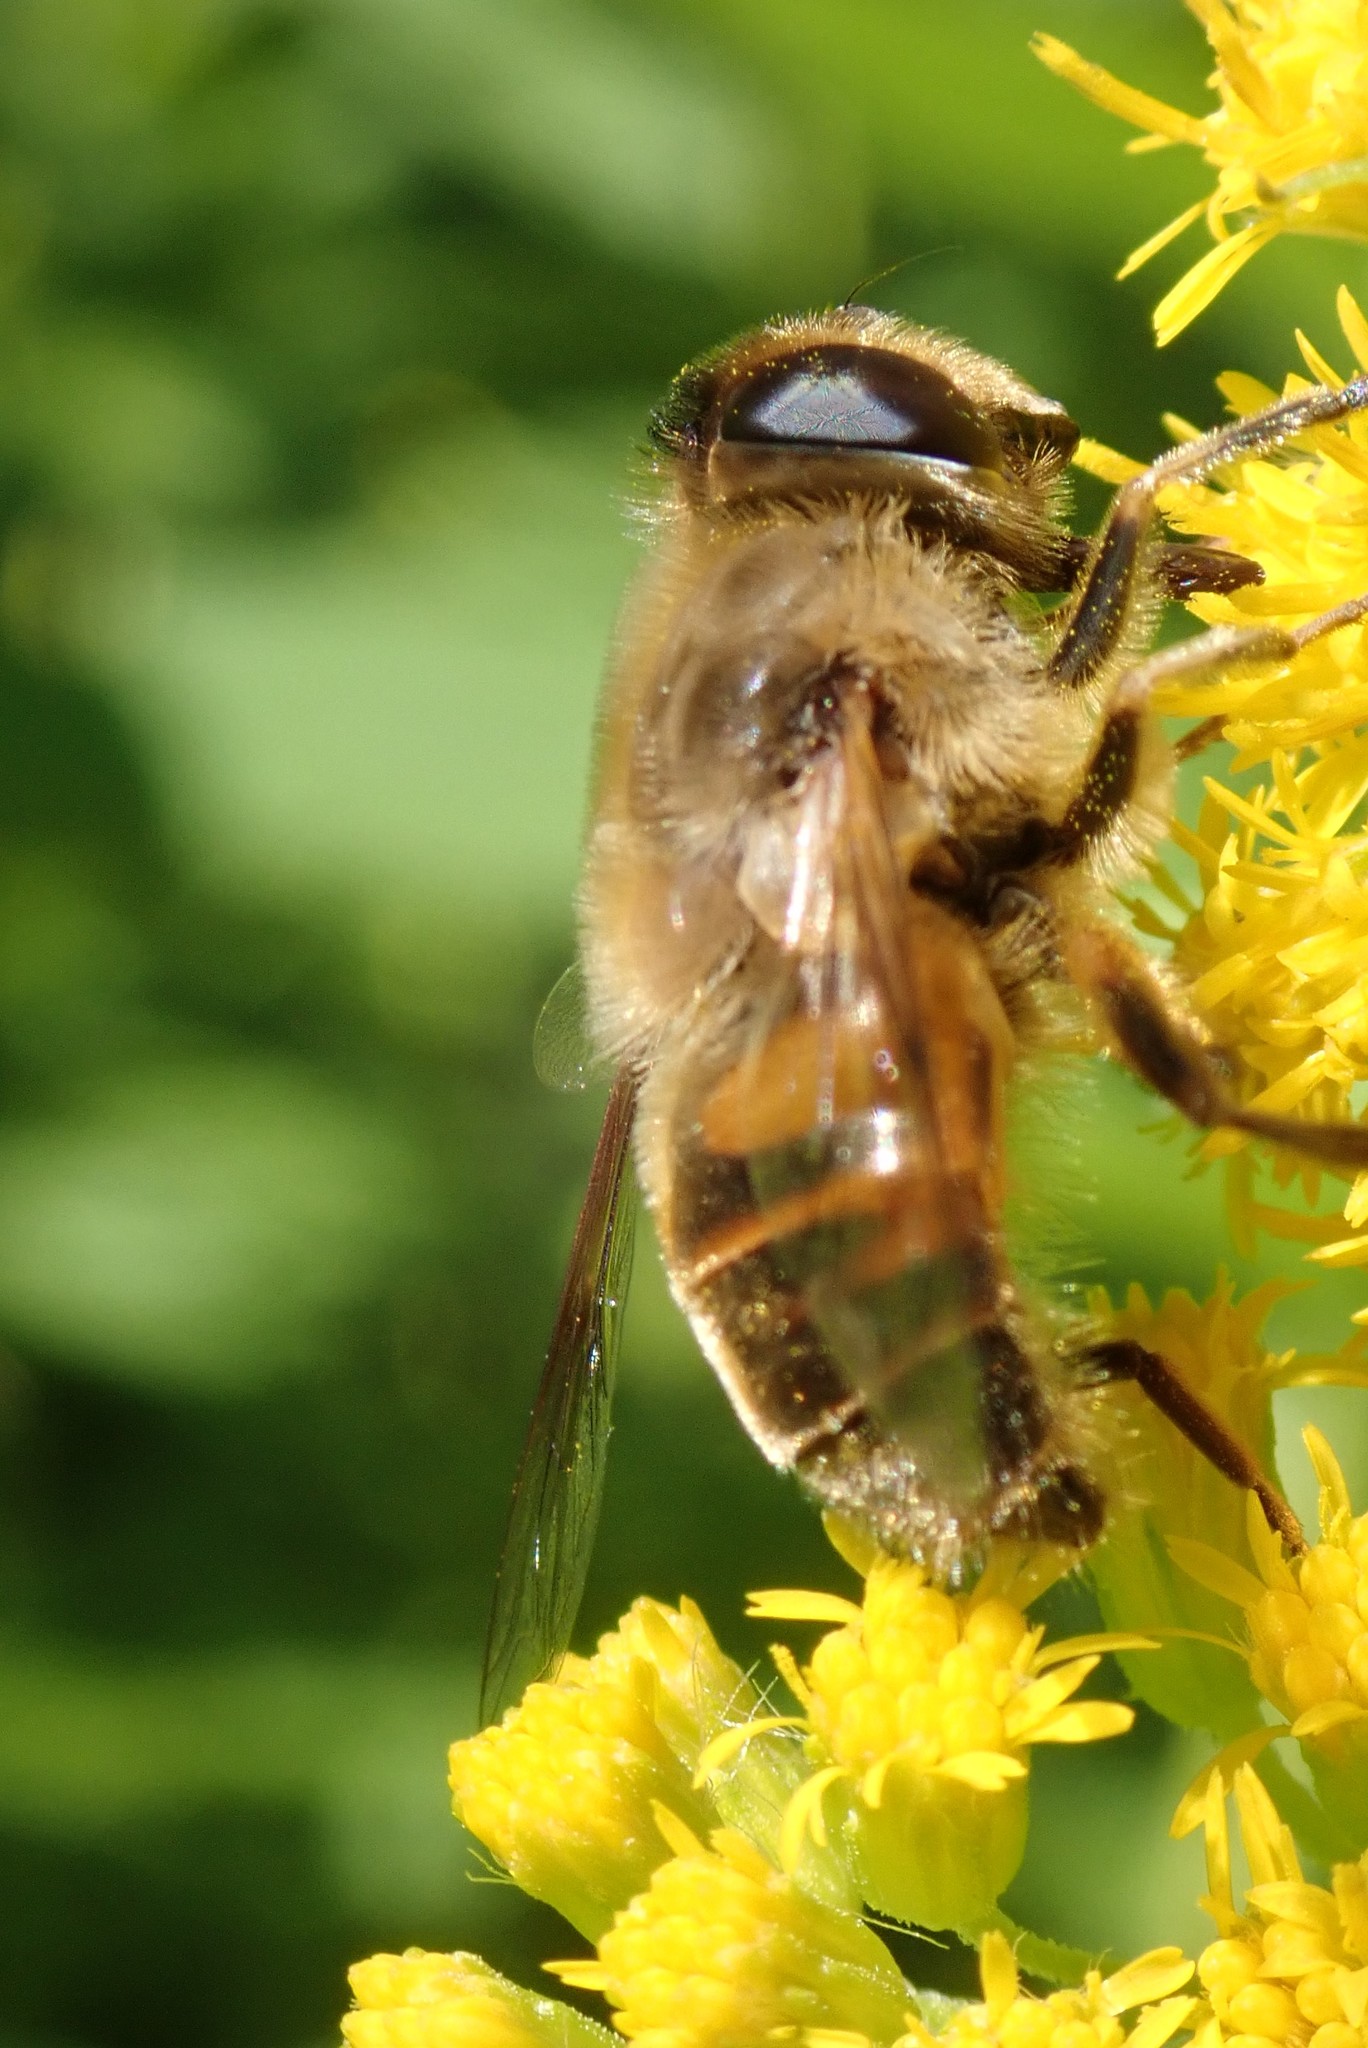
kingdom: Animalia
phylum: Arthropoda
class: Insecta
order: Diptera
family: Syrphidae
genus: Eristalis
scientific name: Eristalis tenax
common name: Drone fly
